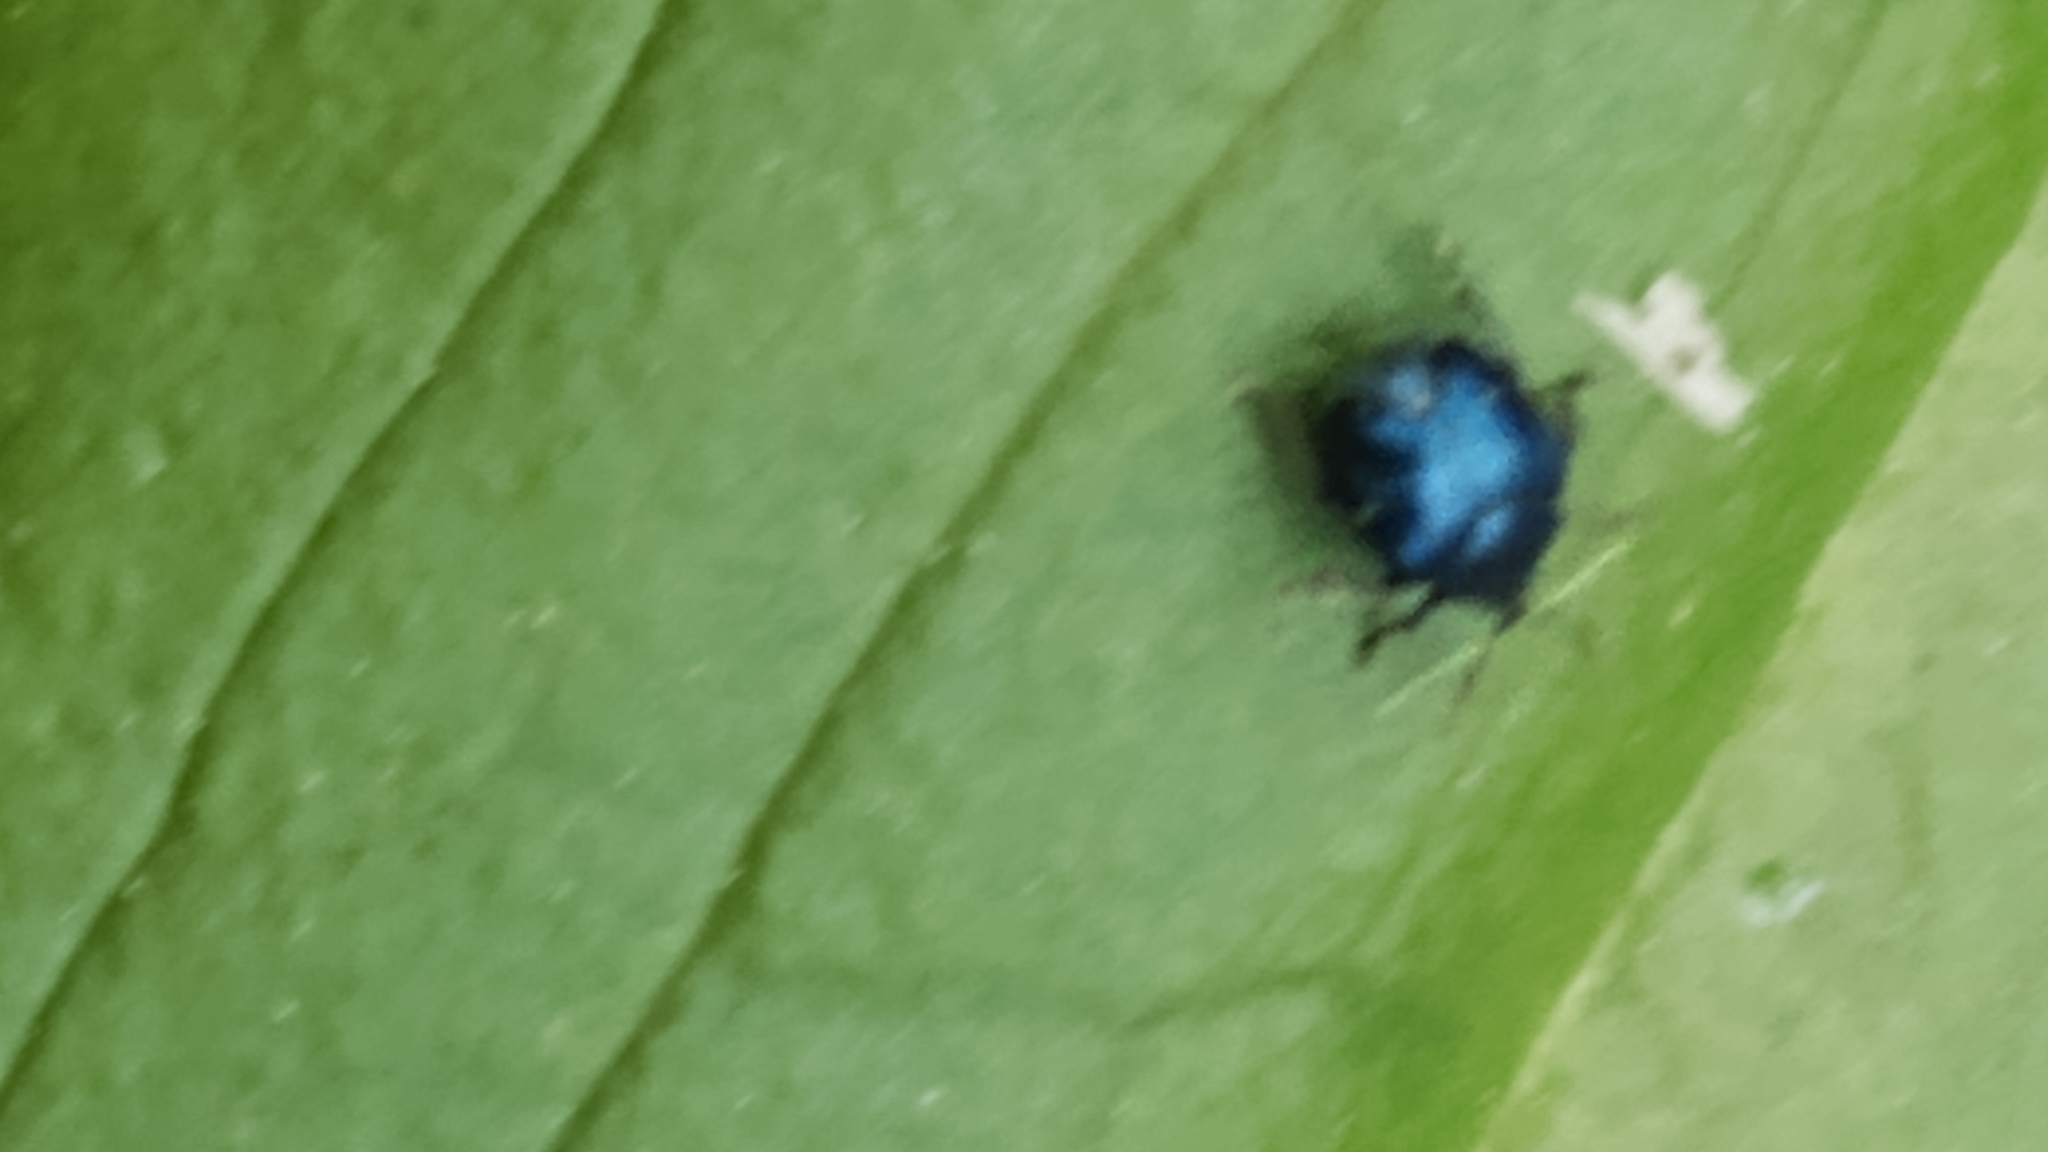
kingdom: Animalia
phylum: Arthropoda
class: Insecta
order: Coleoptera
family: Attelabidae
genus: Pterocolus
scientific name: Pterocolus ovatus
